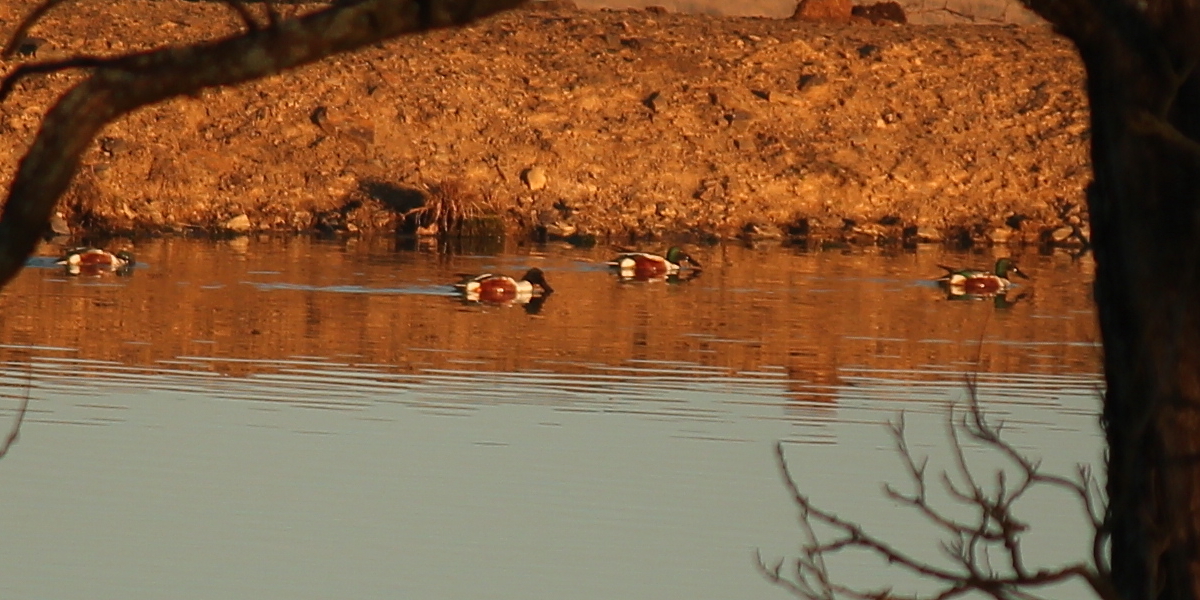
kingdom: Animalia
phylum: Chordata
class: Aves
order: Anseriformes
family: Anatidae
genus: Spatula
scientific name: Spatula clypeata
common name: Northern shoveler
